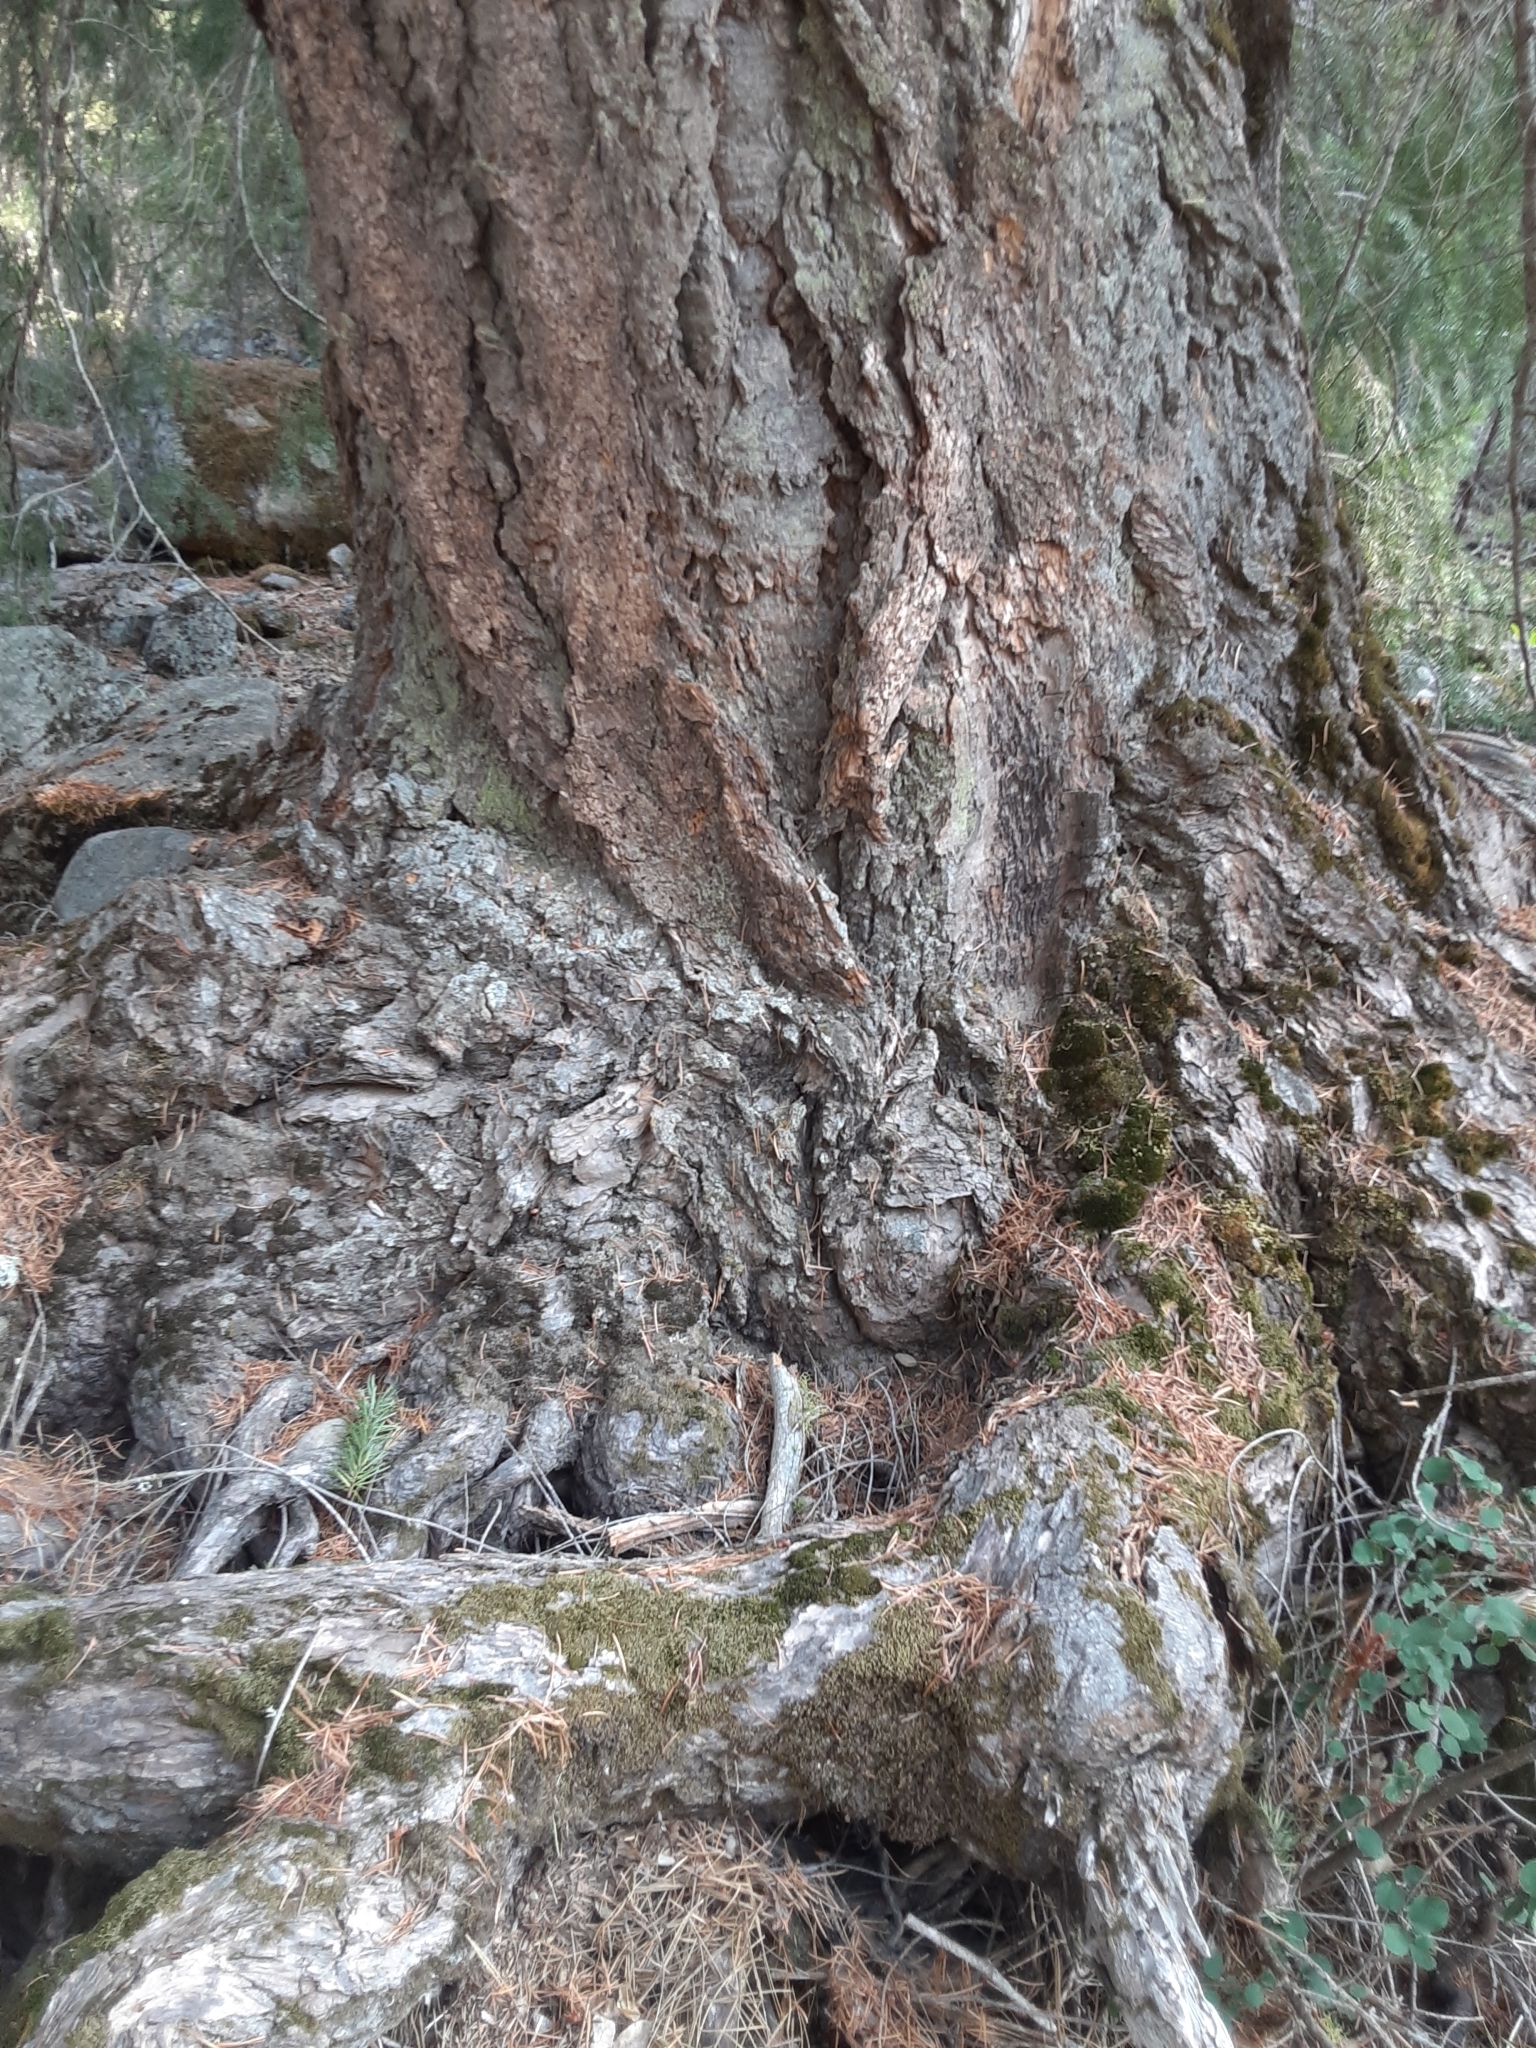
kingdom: Plantae
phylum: Tracheophyta
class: Pinopsida
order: Pinales
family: Pinaceae
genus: Pseudotsuga
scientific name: Pseudotsuga menziesii
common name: Douglas fir
